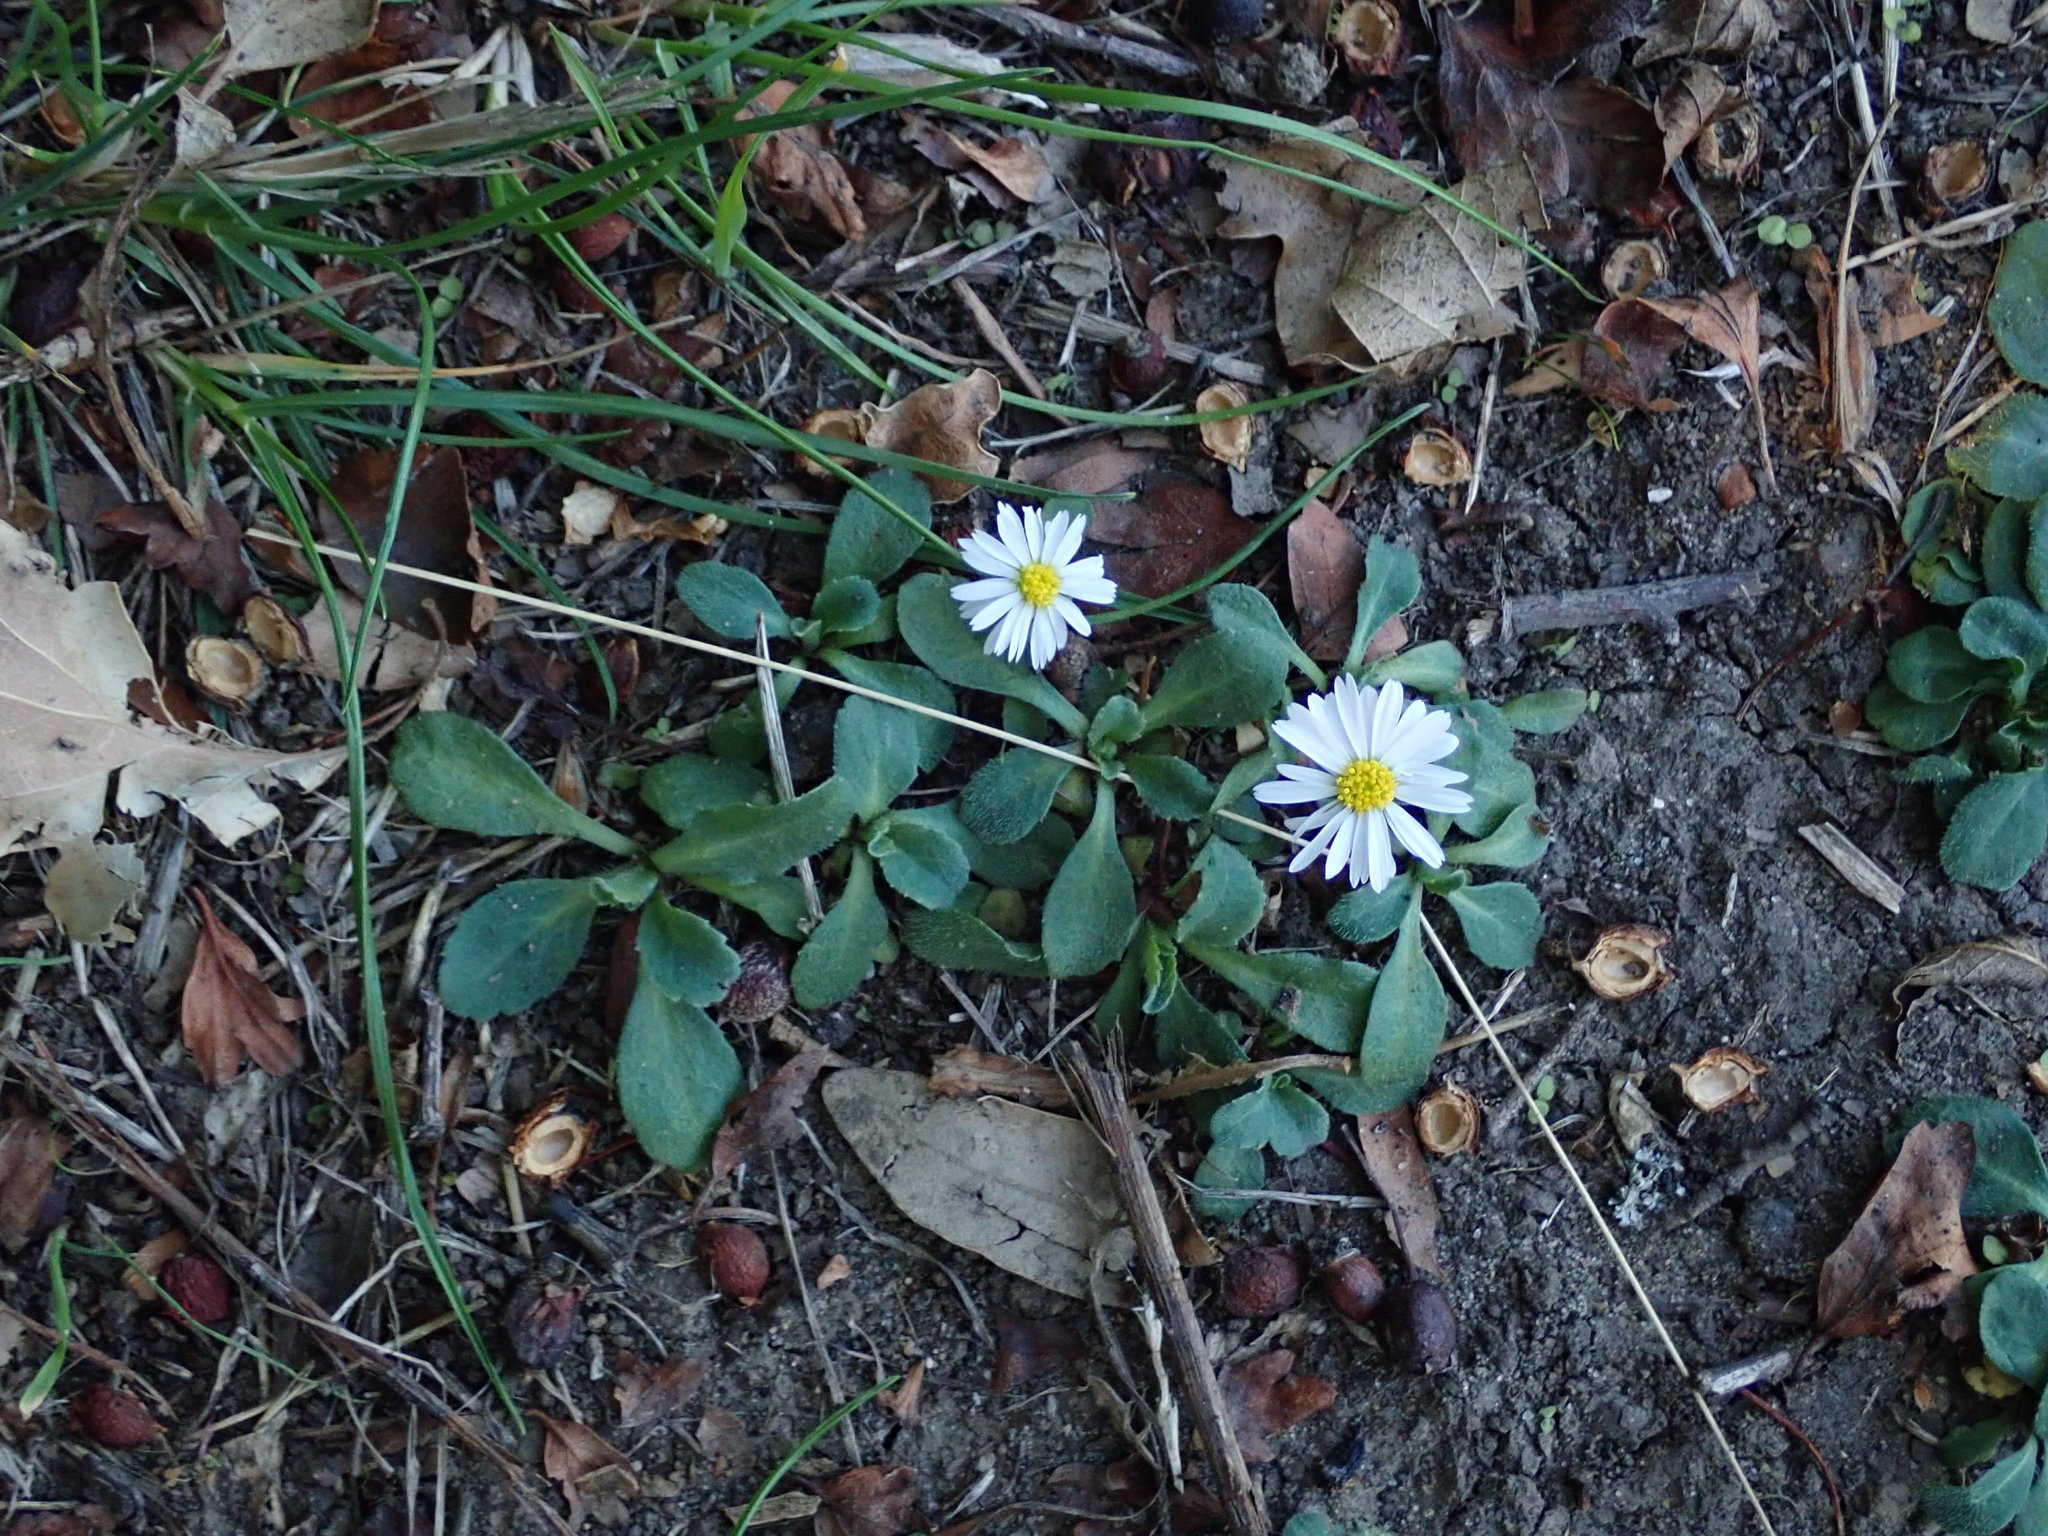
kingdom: Plantae
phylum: Tracheophyta
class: Magnoliopsida
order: Asterales
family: Asteraceae
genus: Bellis
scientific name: Bellis perennis
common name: Lawndaisy
